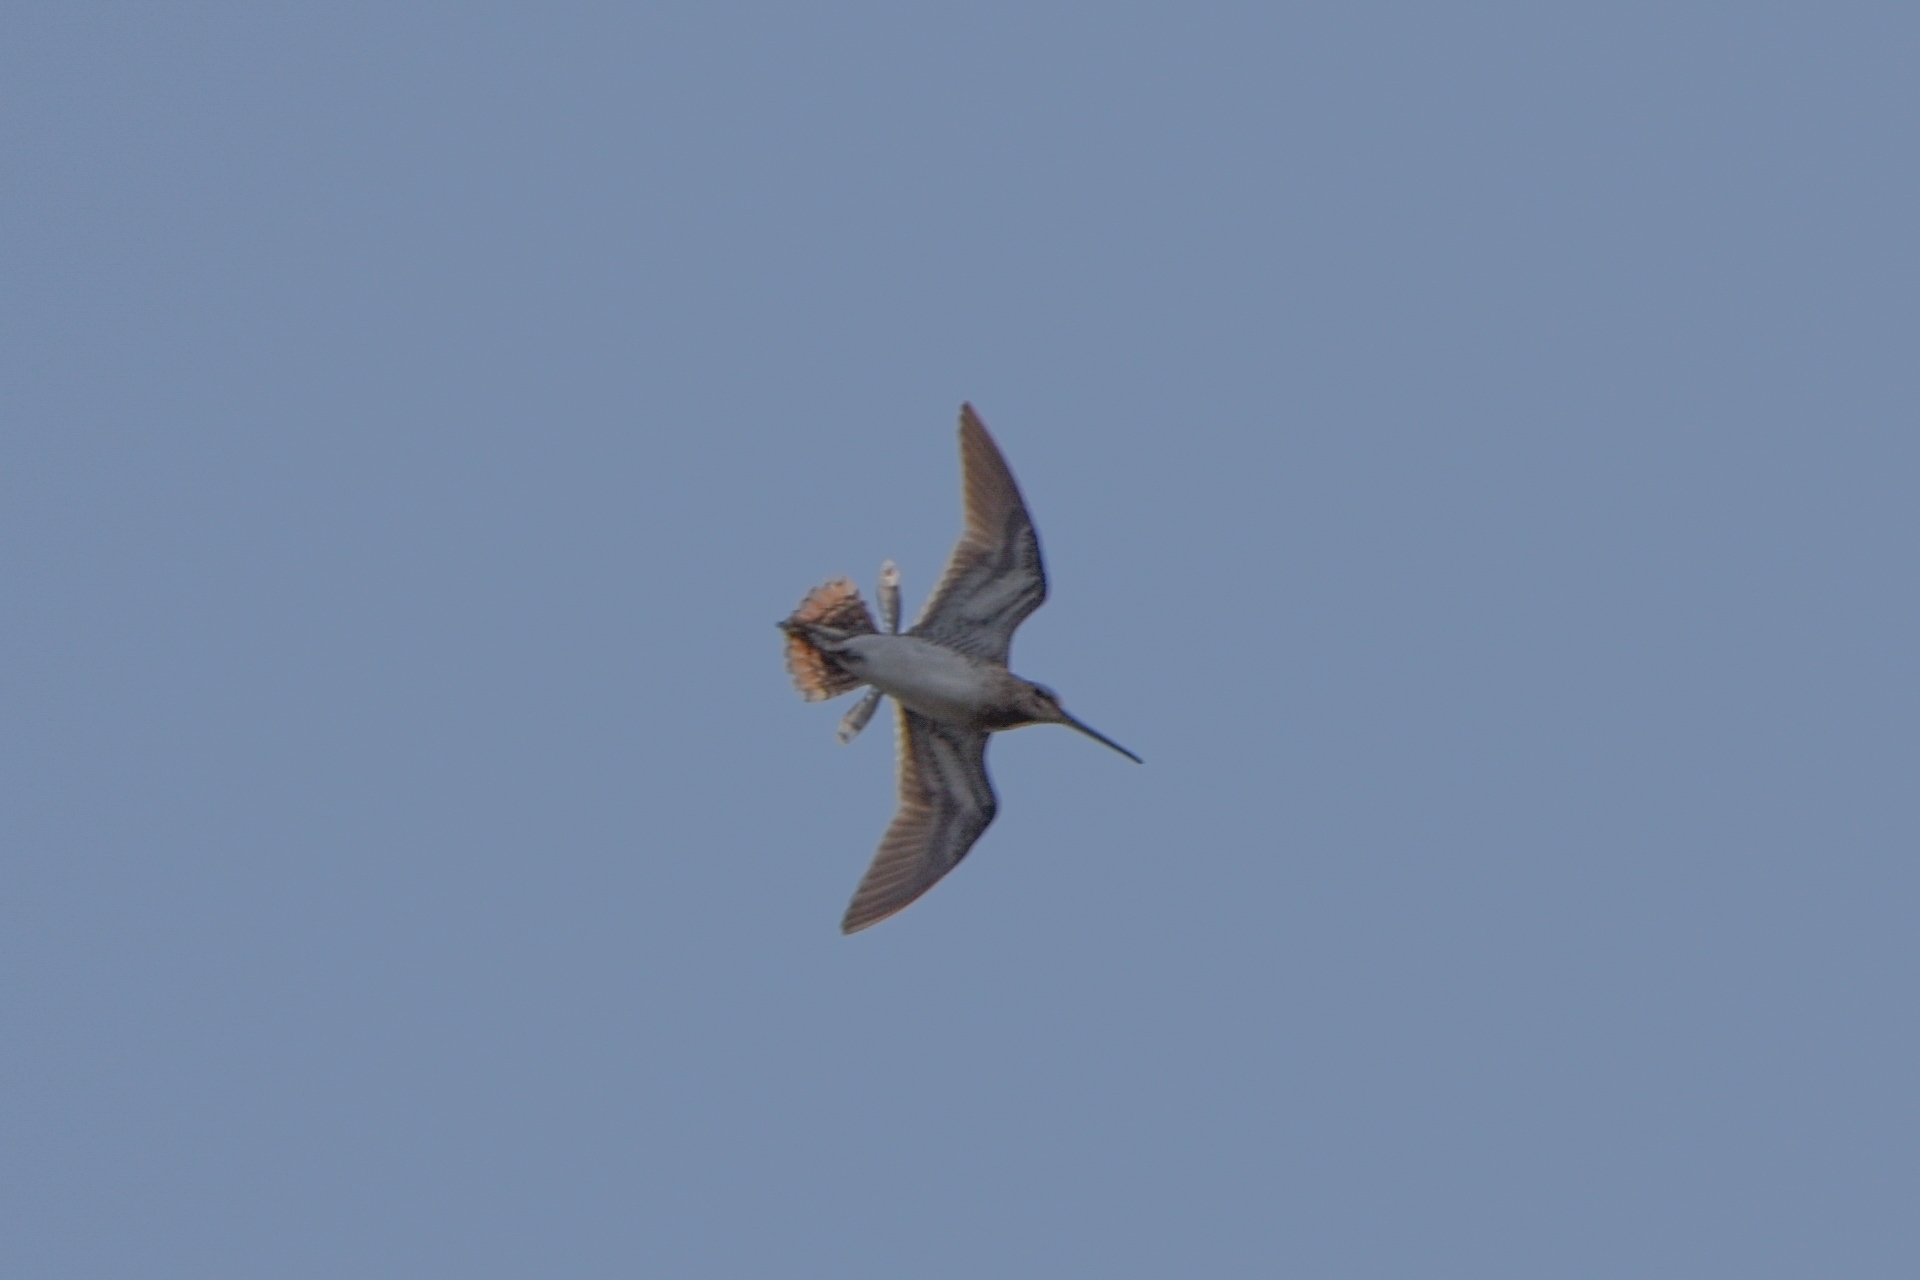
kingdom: Animalia
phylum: Chordata
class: Aves
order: Charadriiformes
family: Scolopacidae
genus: Gallinago
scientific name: Gallinago gallinago
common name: Common snipe
